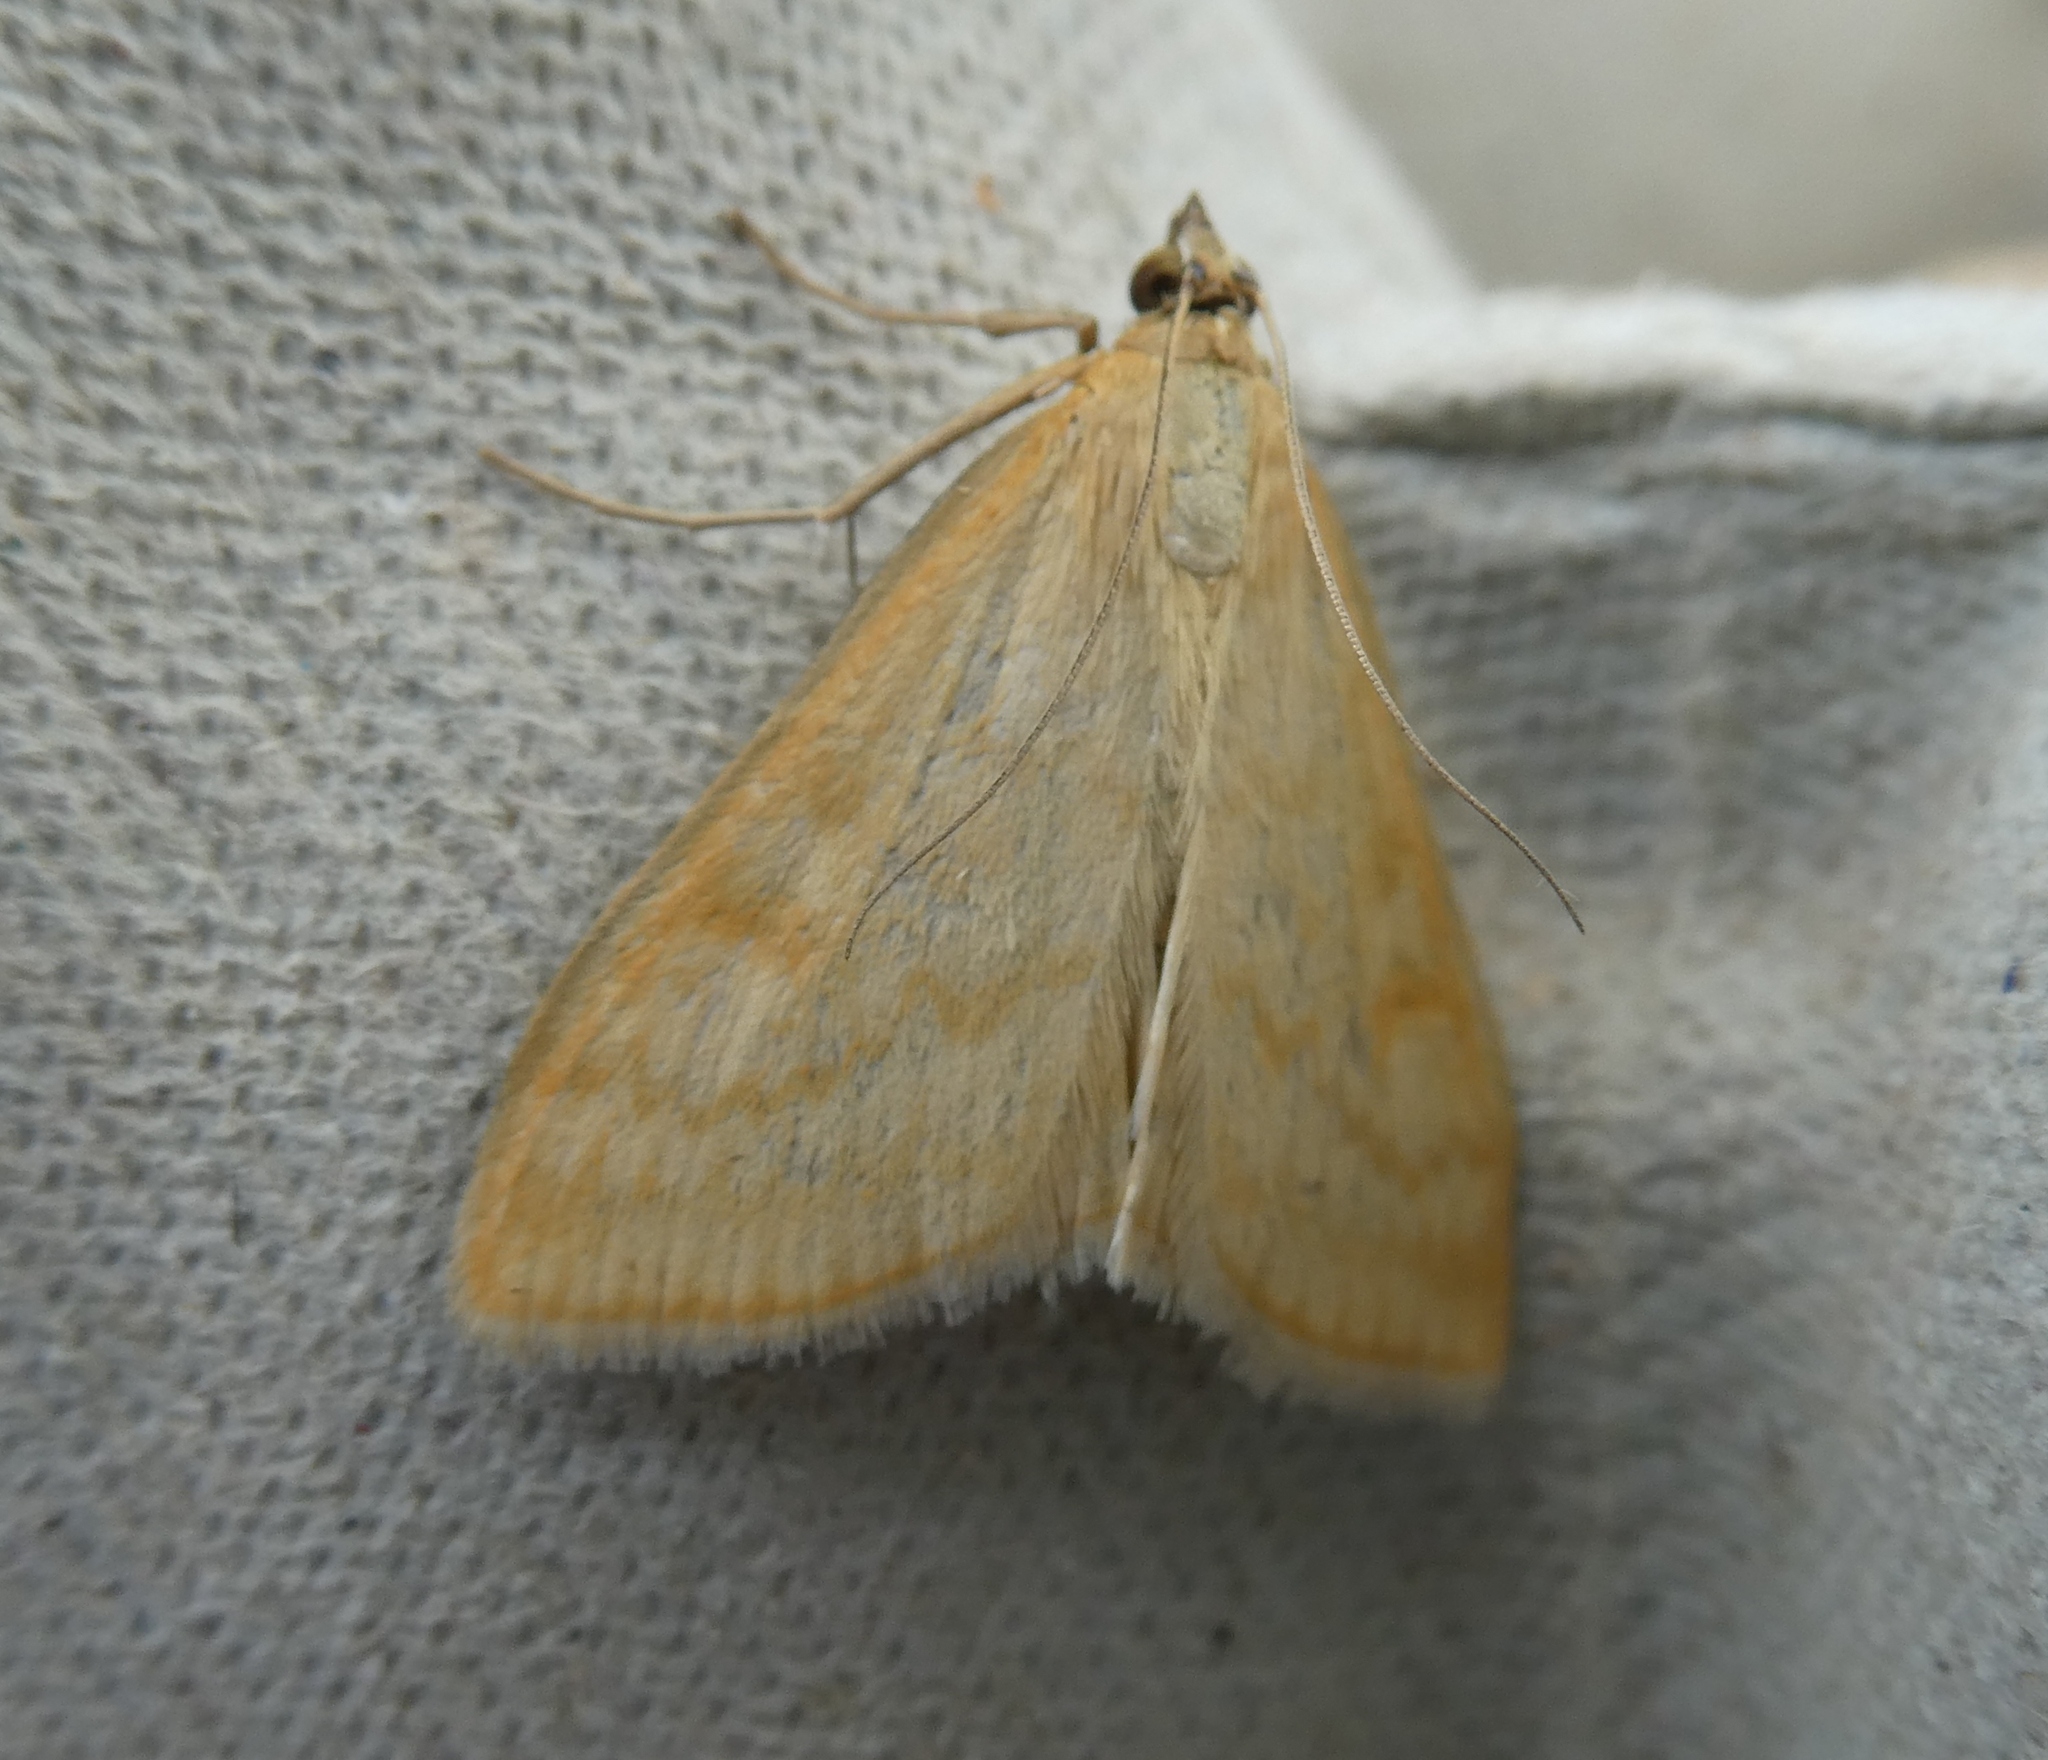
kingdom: Animalia
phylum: Arthropoda
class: Insecta
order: Lepidoptera
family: Crambidae
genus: Sitochroa
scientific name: Sitochroa verticalis
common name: Lesser pearl
